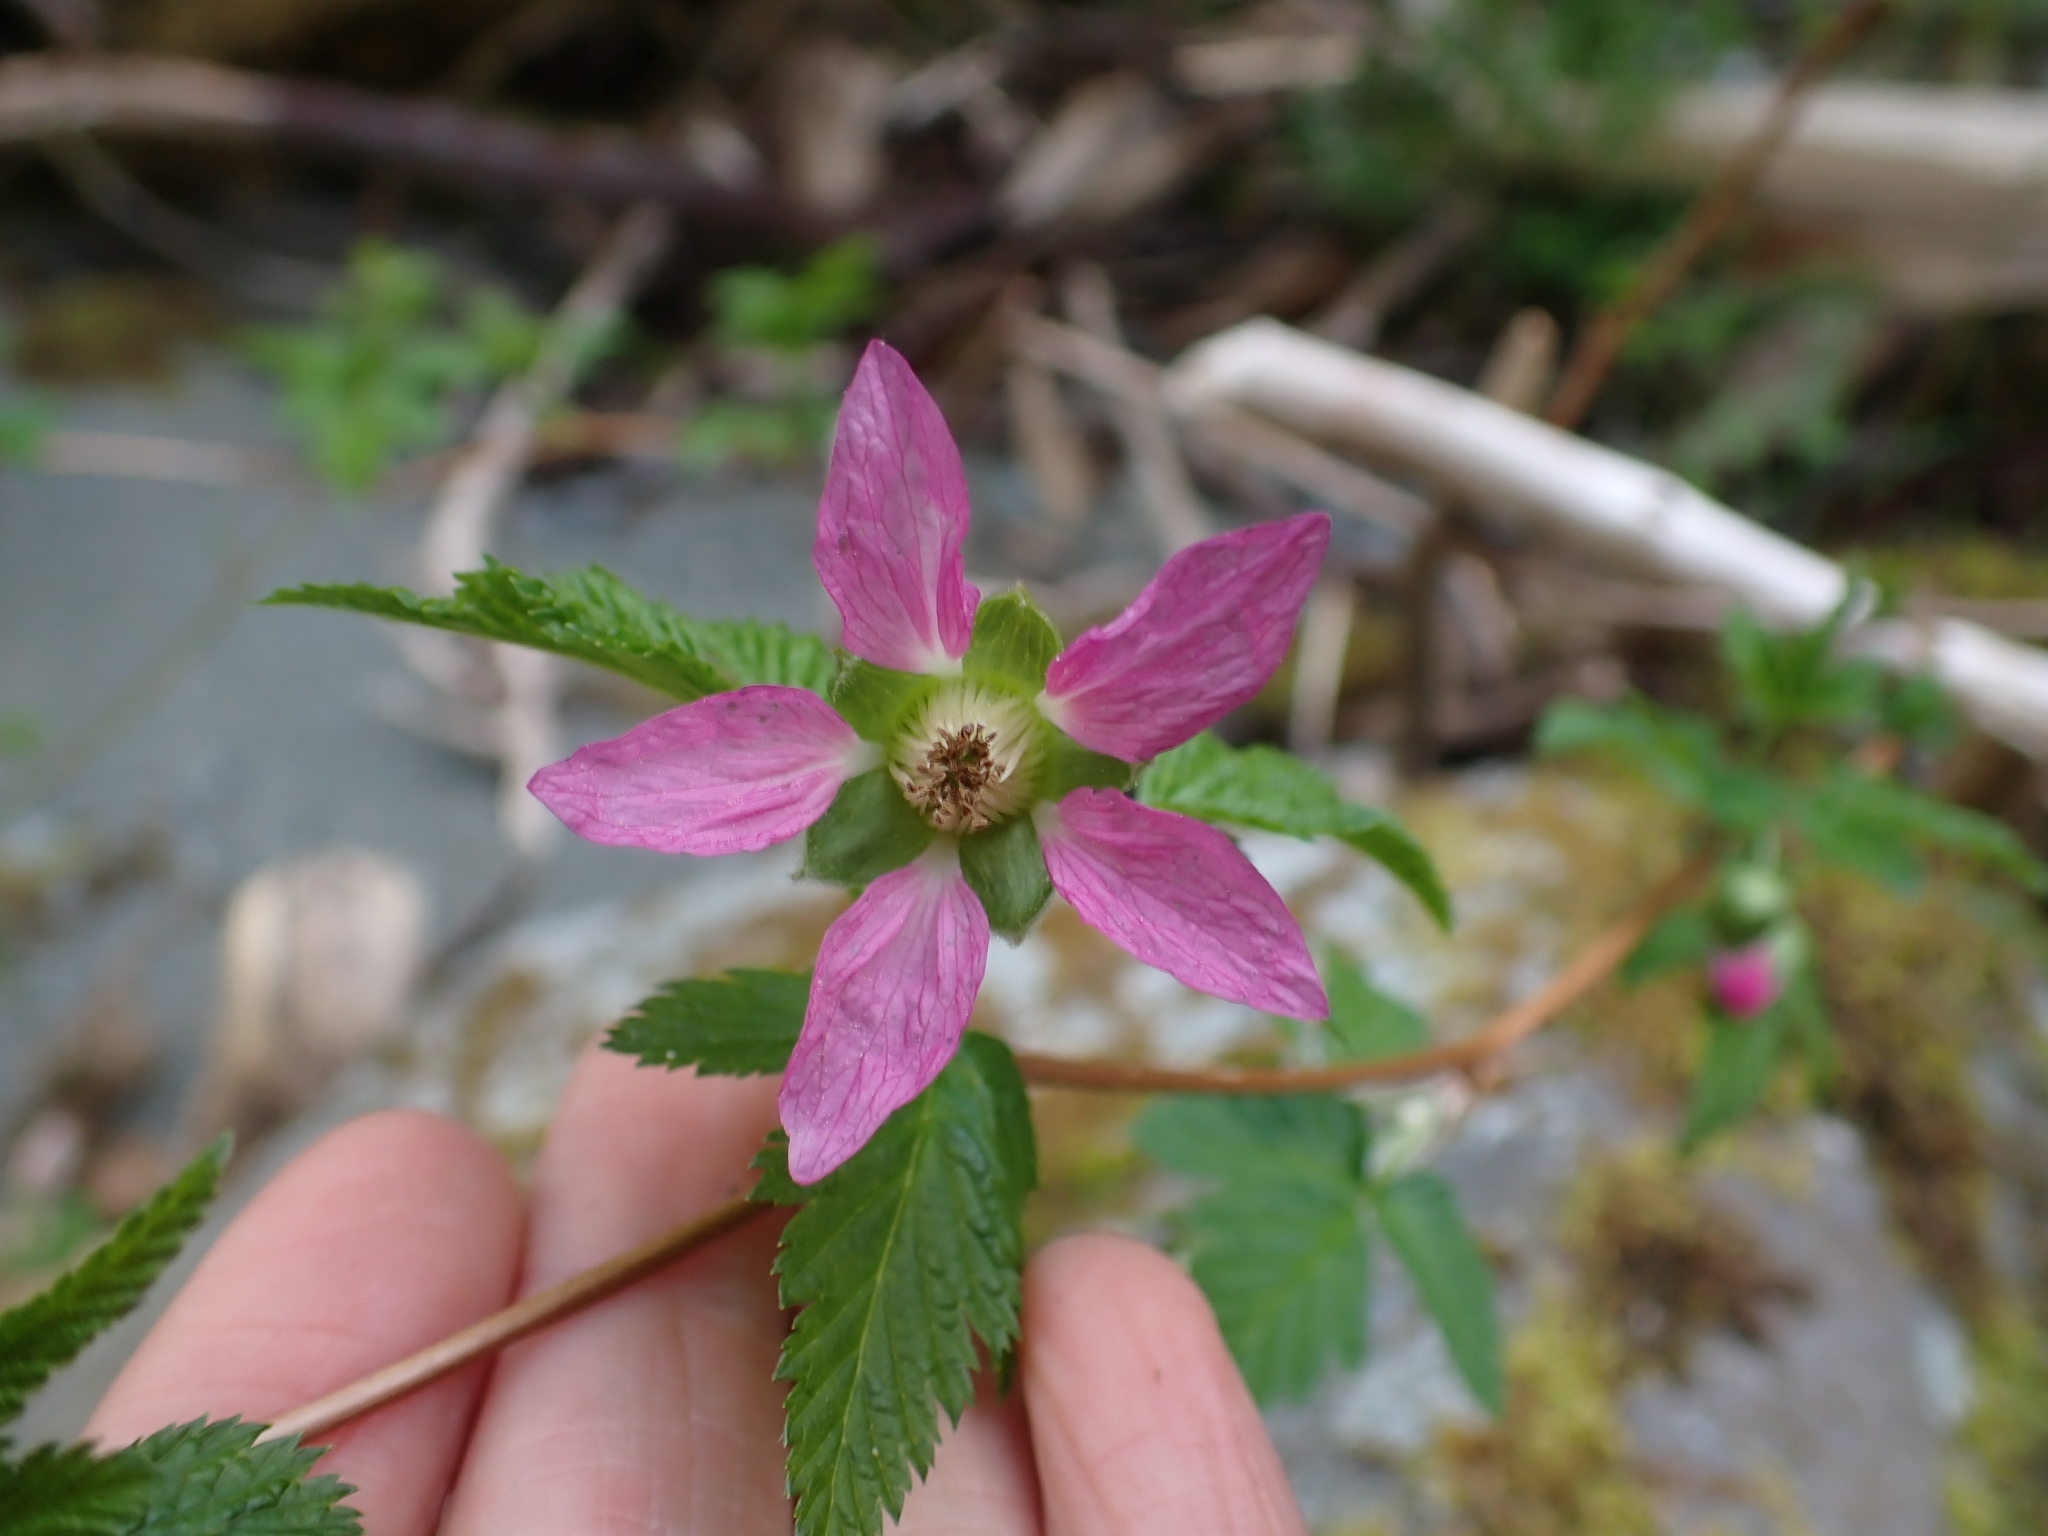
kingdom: Plantae
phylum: Tracheophyta
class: Magnoliopsida
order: Rosales
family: Rosaceae
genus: Rubus
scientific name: Rubus spectabilis
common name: Salmonberry
